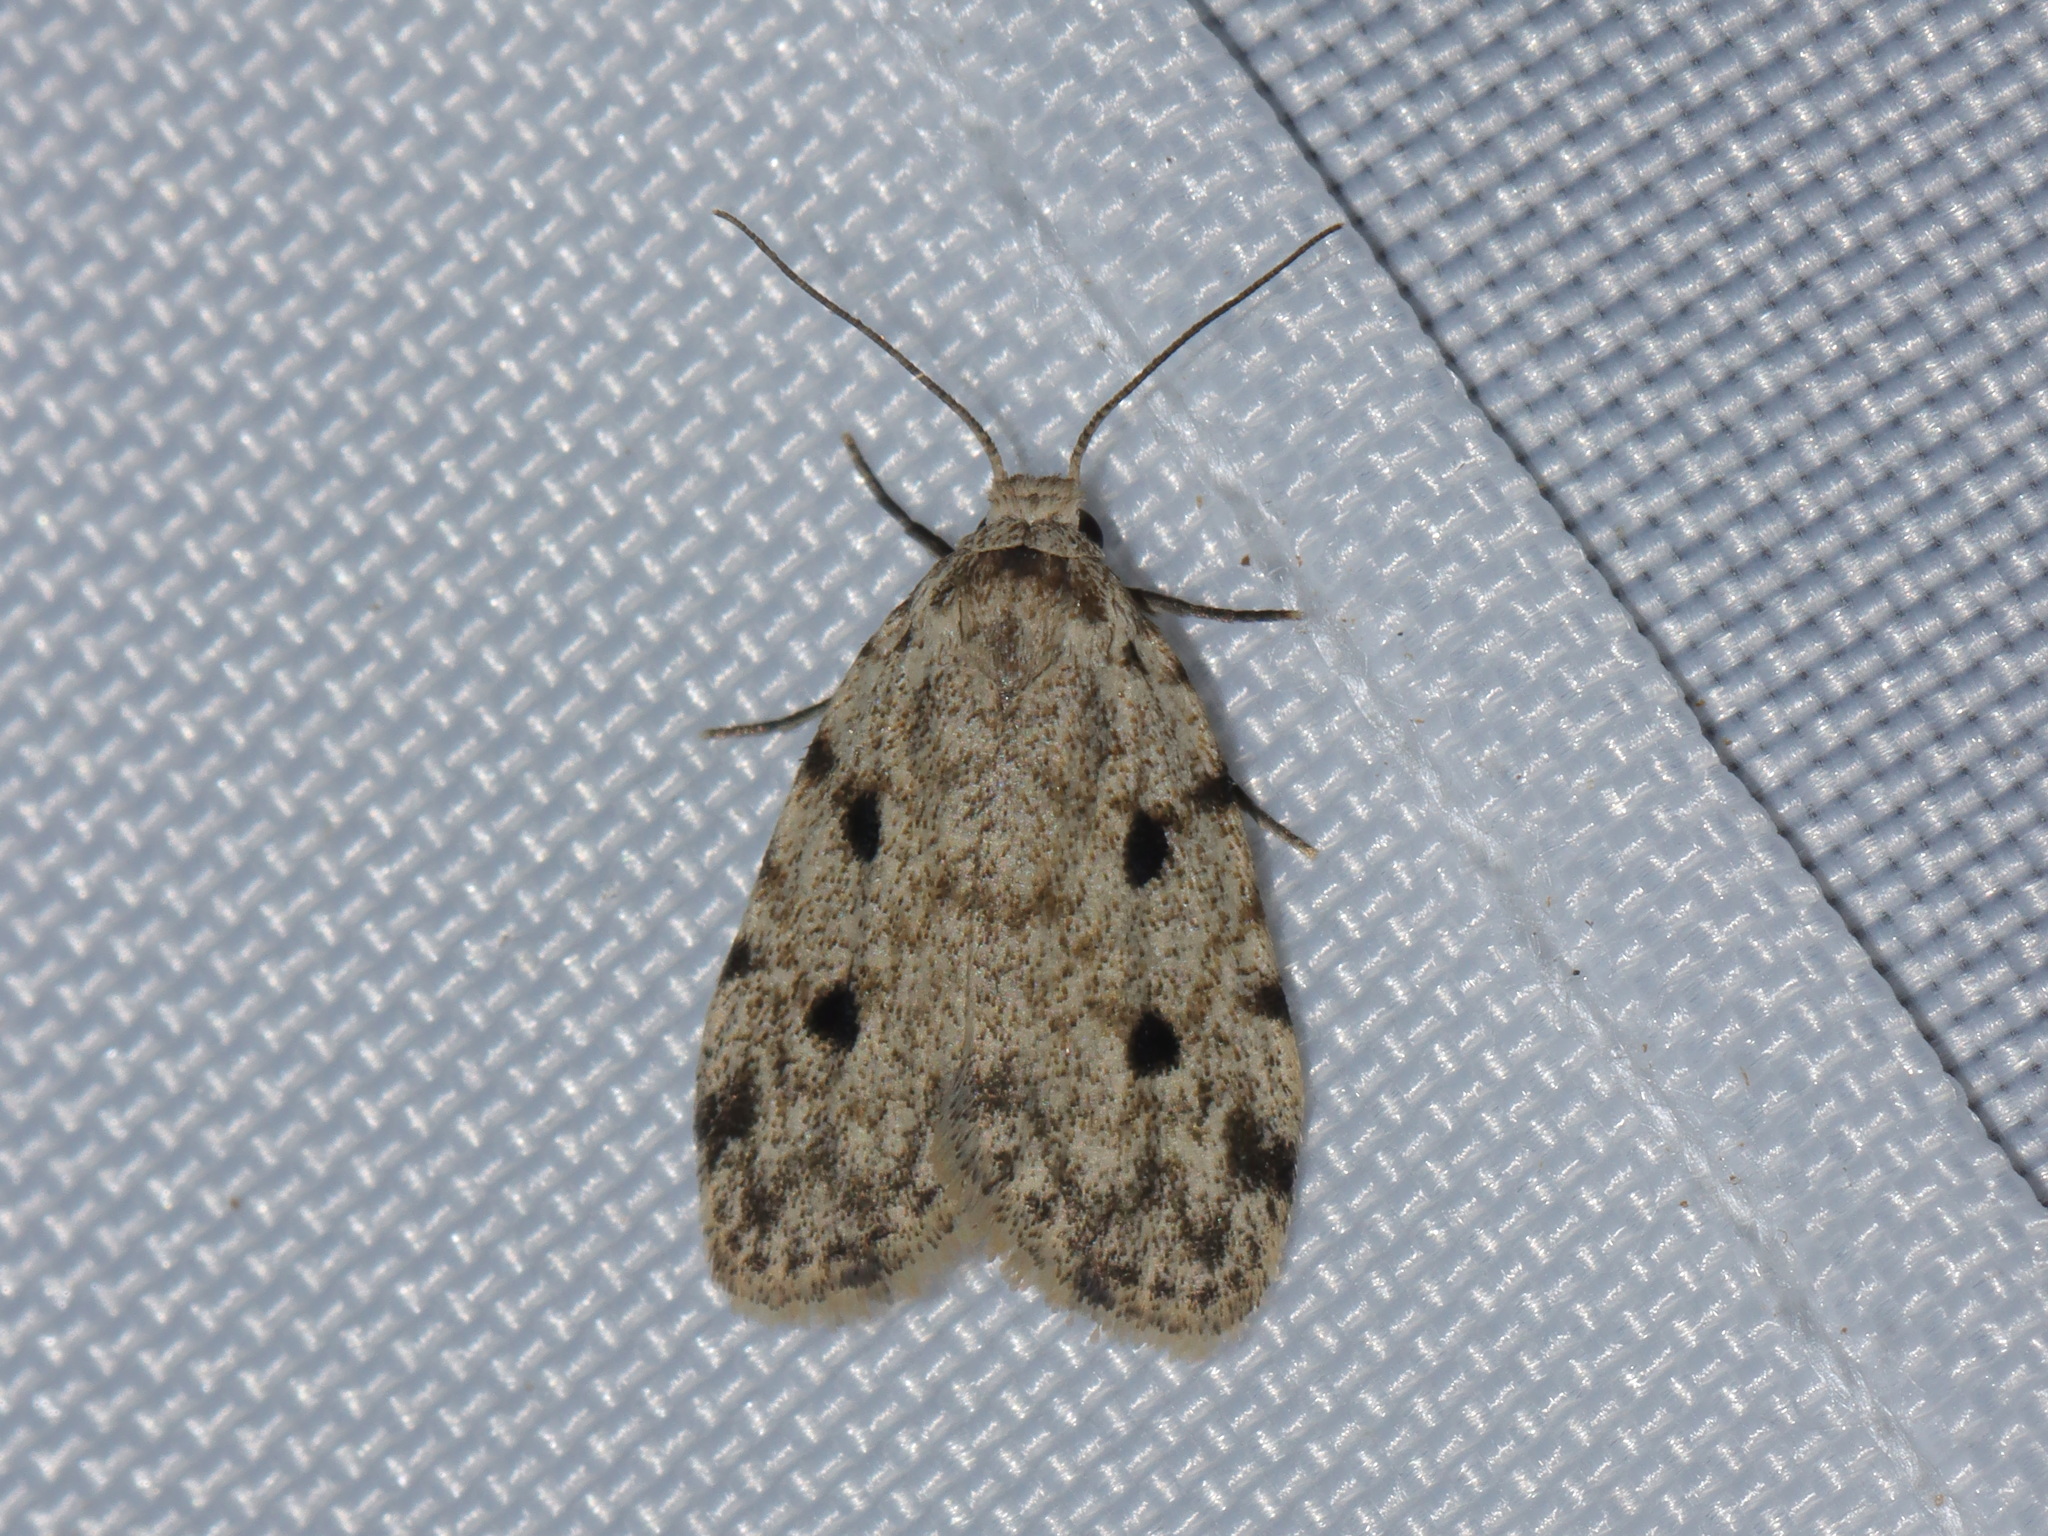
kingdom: Animalia
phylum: Arthropoda
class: Insecta
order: Lepidoptera
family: Erebidae
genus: Siccia
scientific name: Siccia sagittifera
